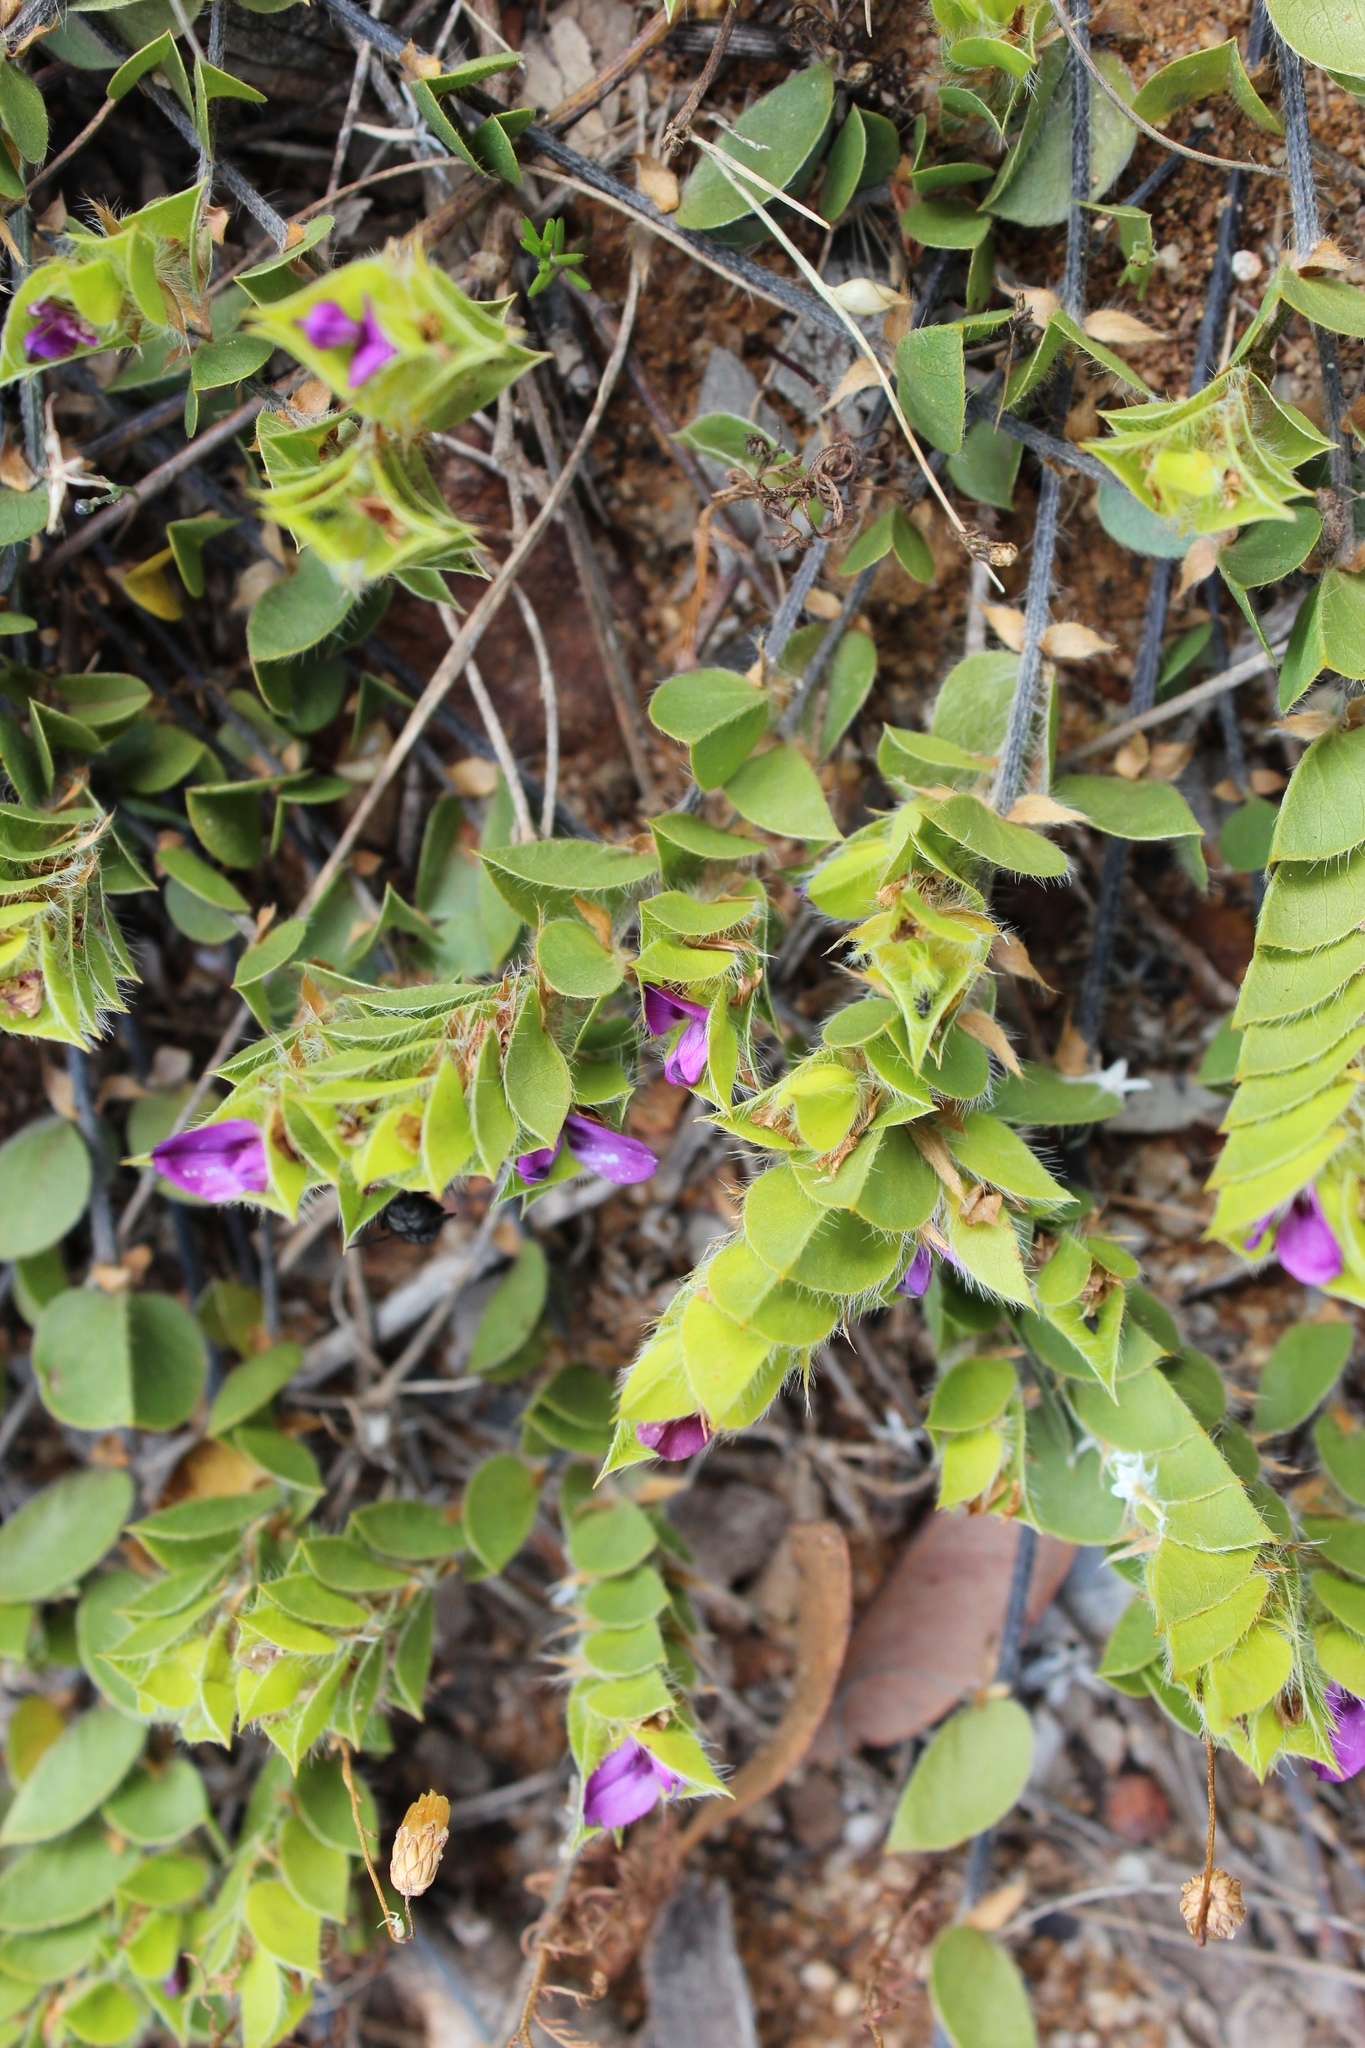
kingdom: Plantae
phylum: Tracheophyta
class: Magnoliopsida
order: Fabales
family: Fabaceae
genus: Psoralea
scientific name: Psoralea imbricata
